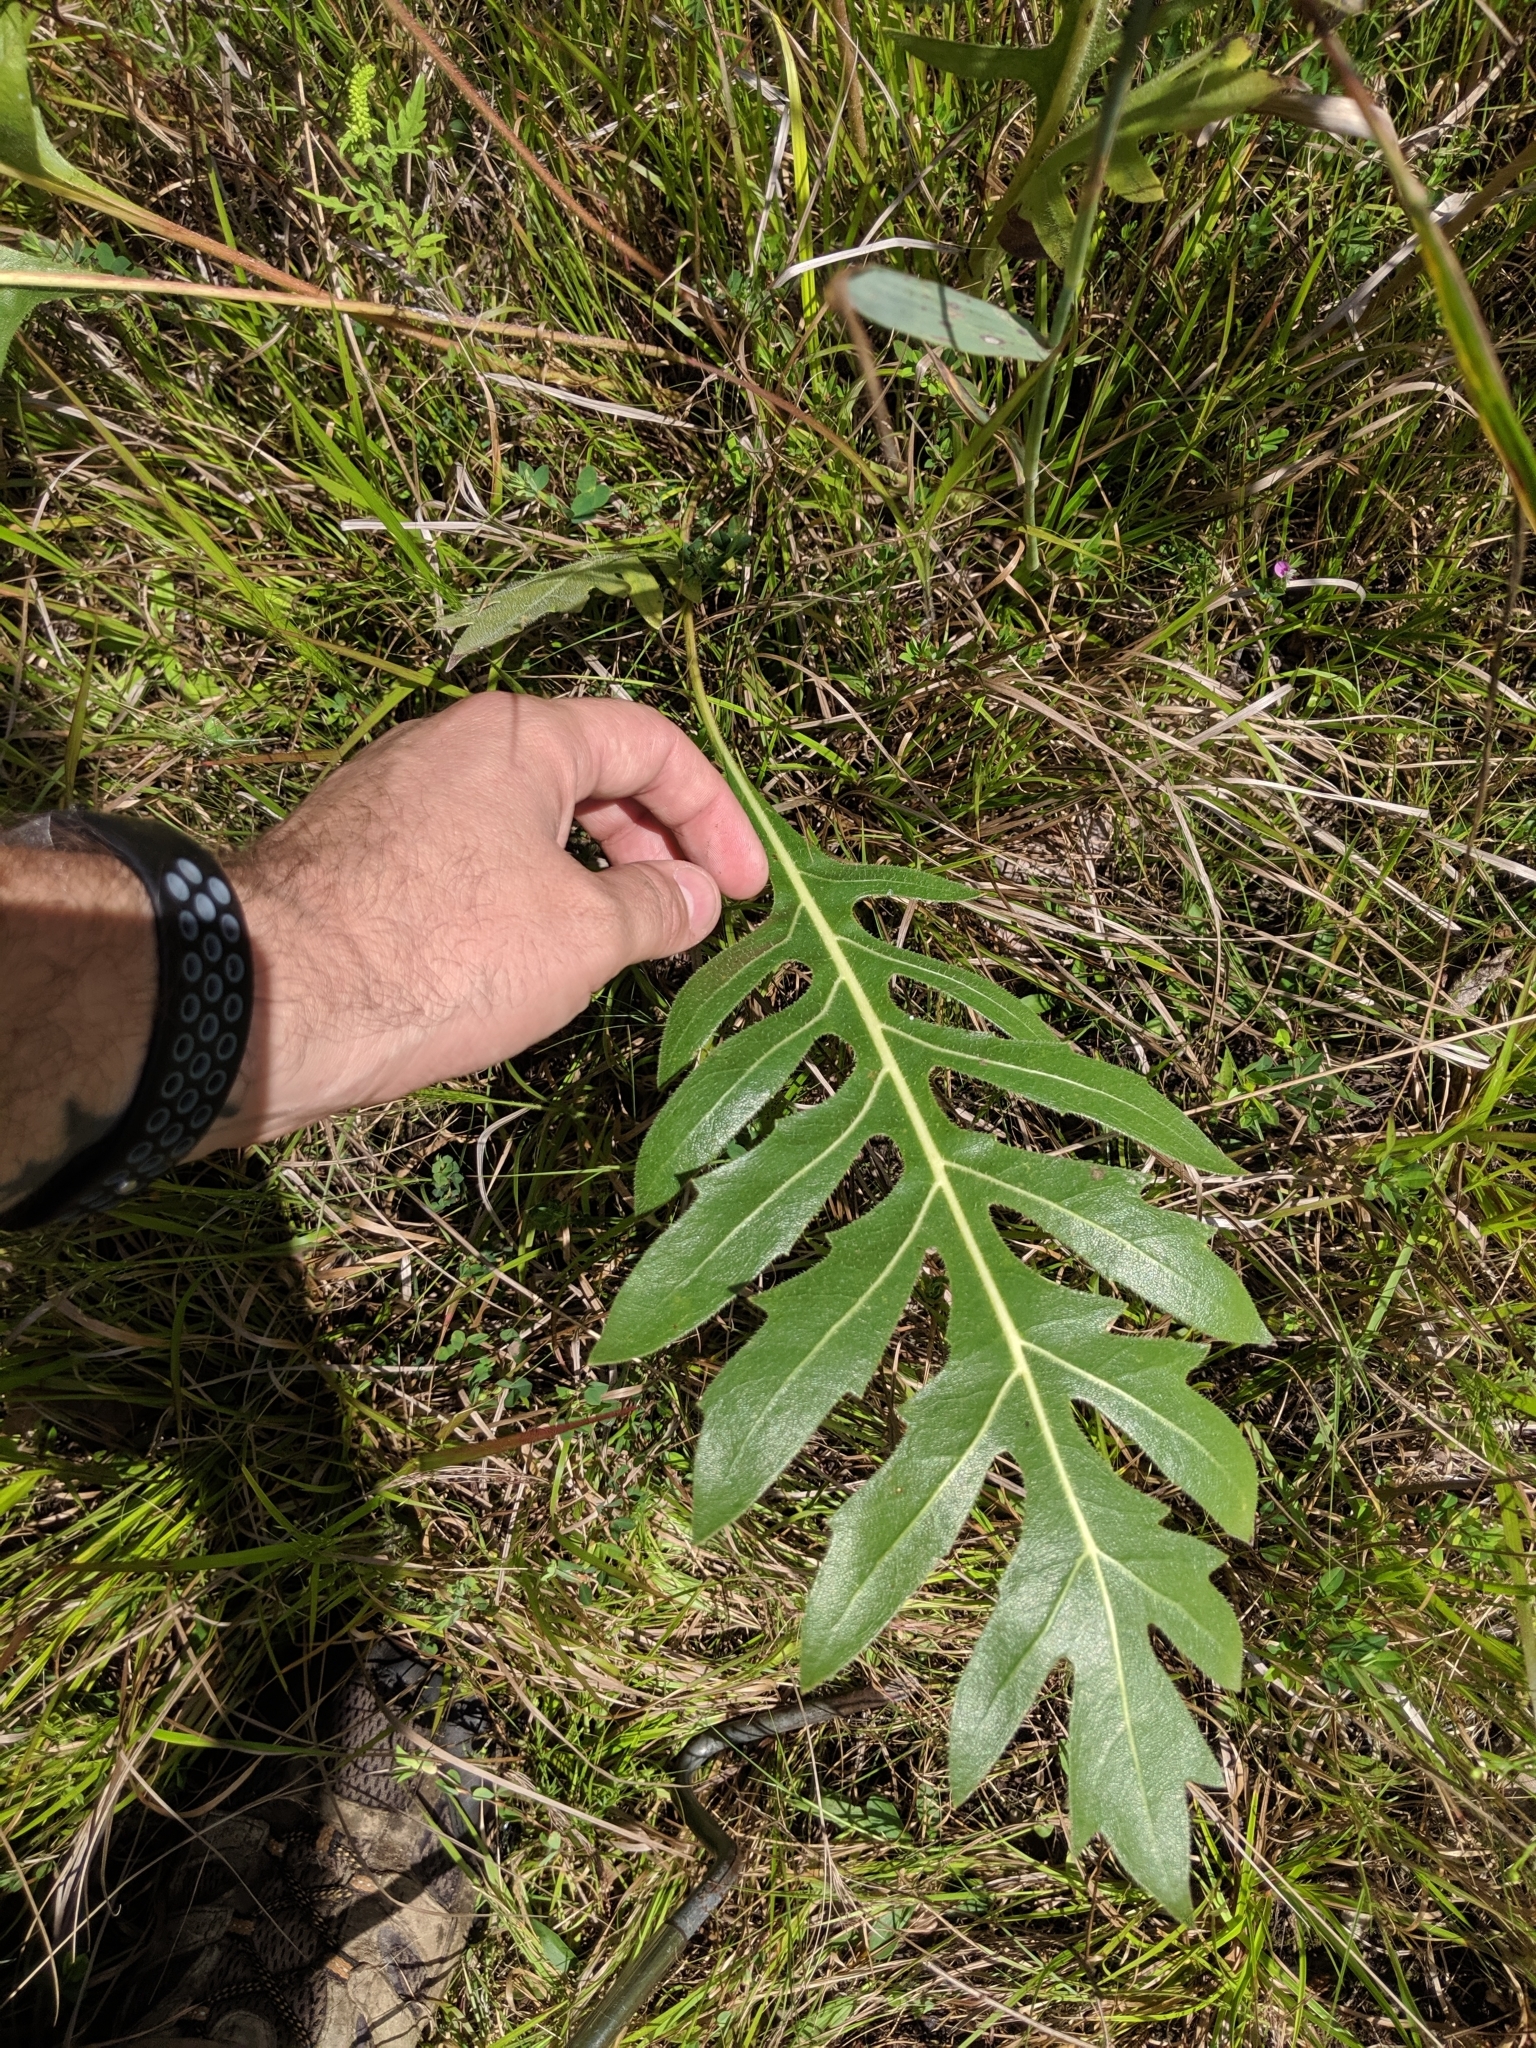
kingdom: Plantae
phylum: Tracheophyta
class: Magnoliopsida
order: Asterales
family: Asteraceae
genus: Silphium
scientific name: Silphium laciniatum
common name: Polarplant
